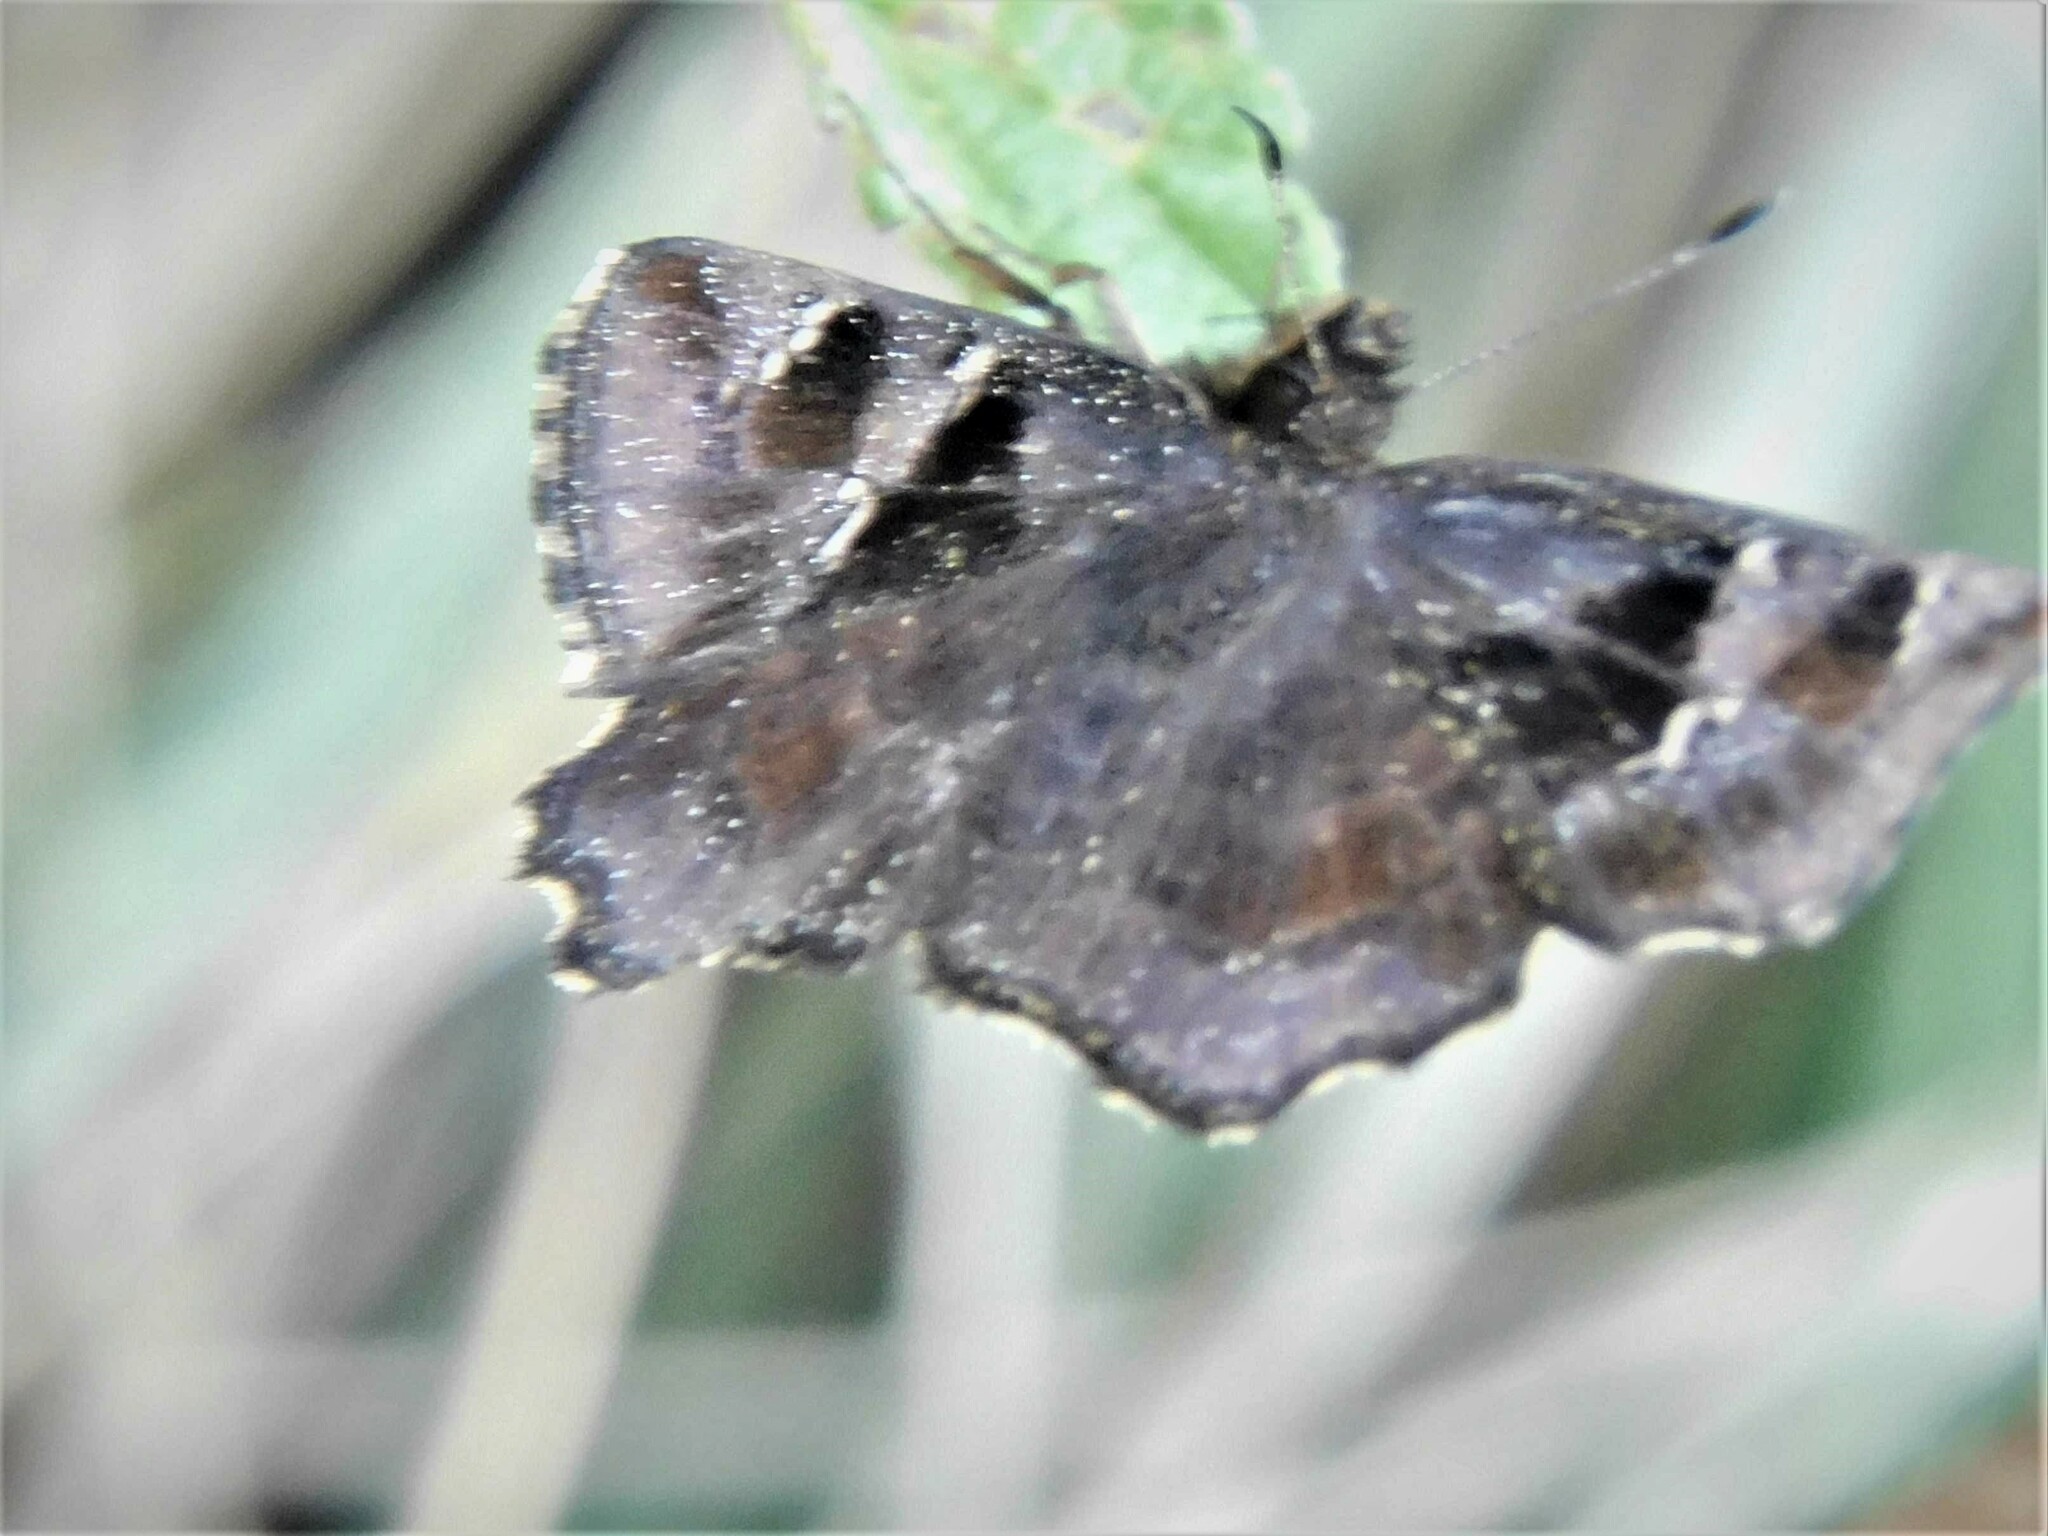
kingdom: Animalia
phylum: Arthropoda
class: Insecta
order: Lepidoptera
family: Hesperiidae
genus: Eretis
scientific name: Eretis djaelaelae
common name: Marbled elf
